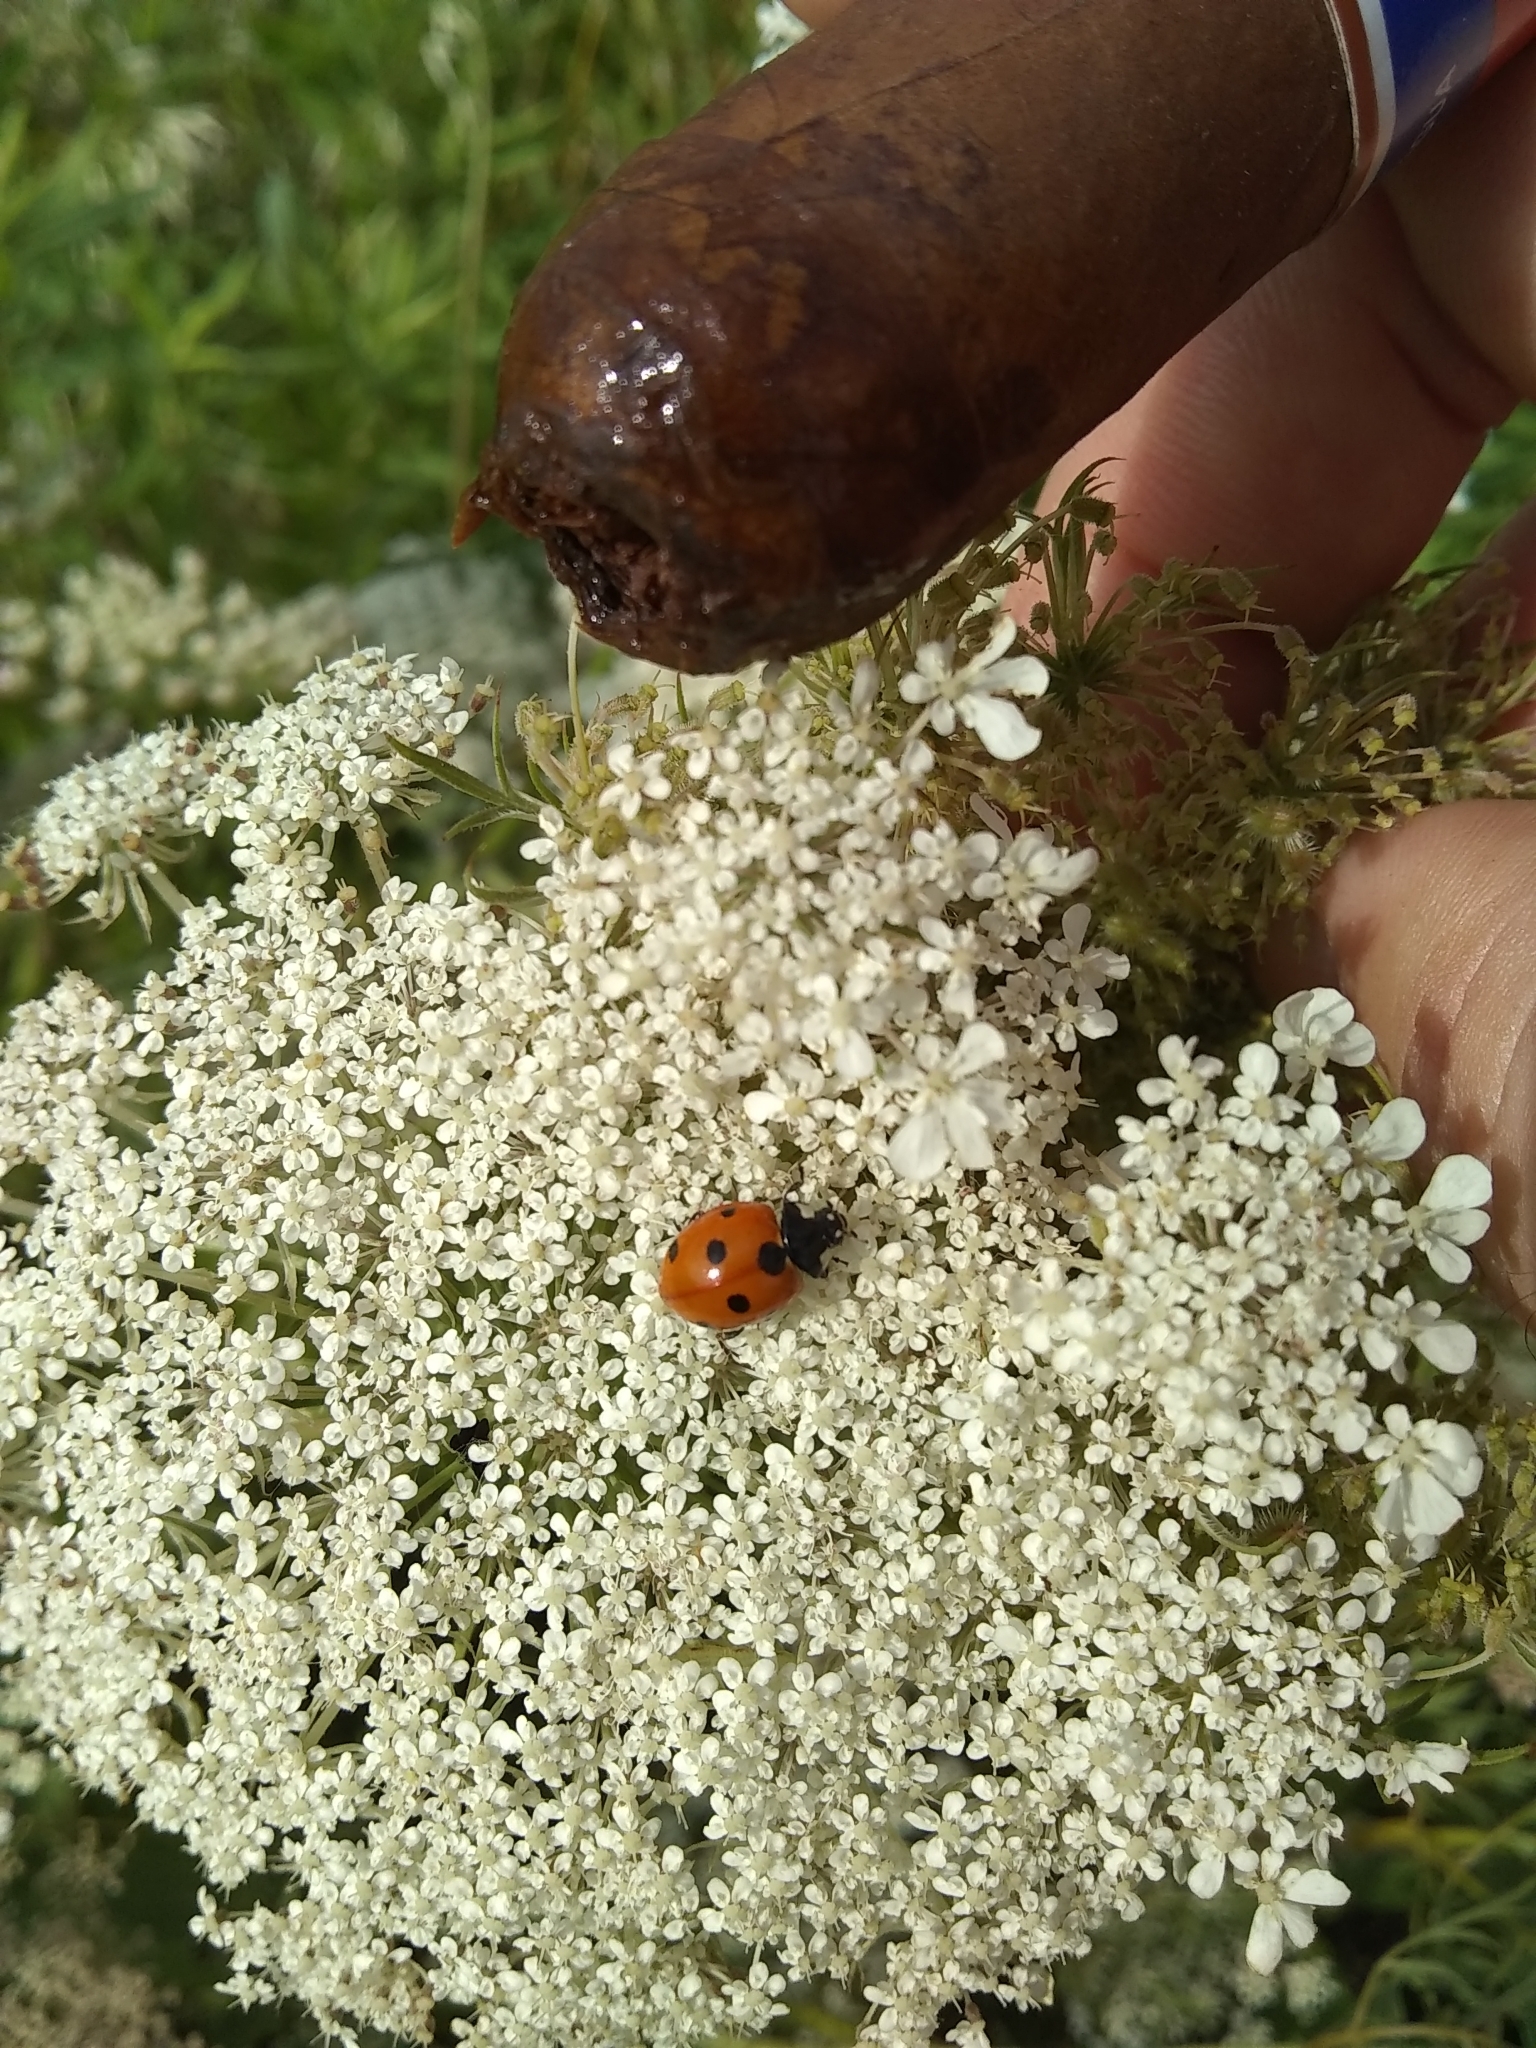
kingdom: Animalia
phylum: Arthropoda
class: Insecta
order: Coleoptera
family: Coccinellidae
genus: Coccinella
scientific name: Coccinella septempunctata
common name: Sevenspotted lady beetle
